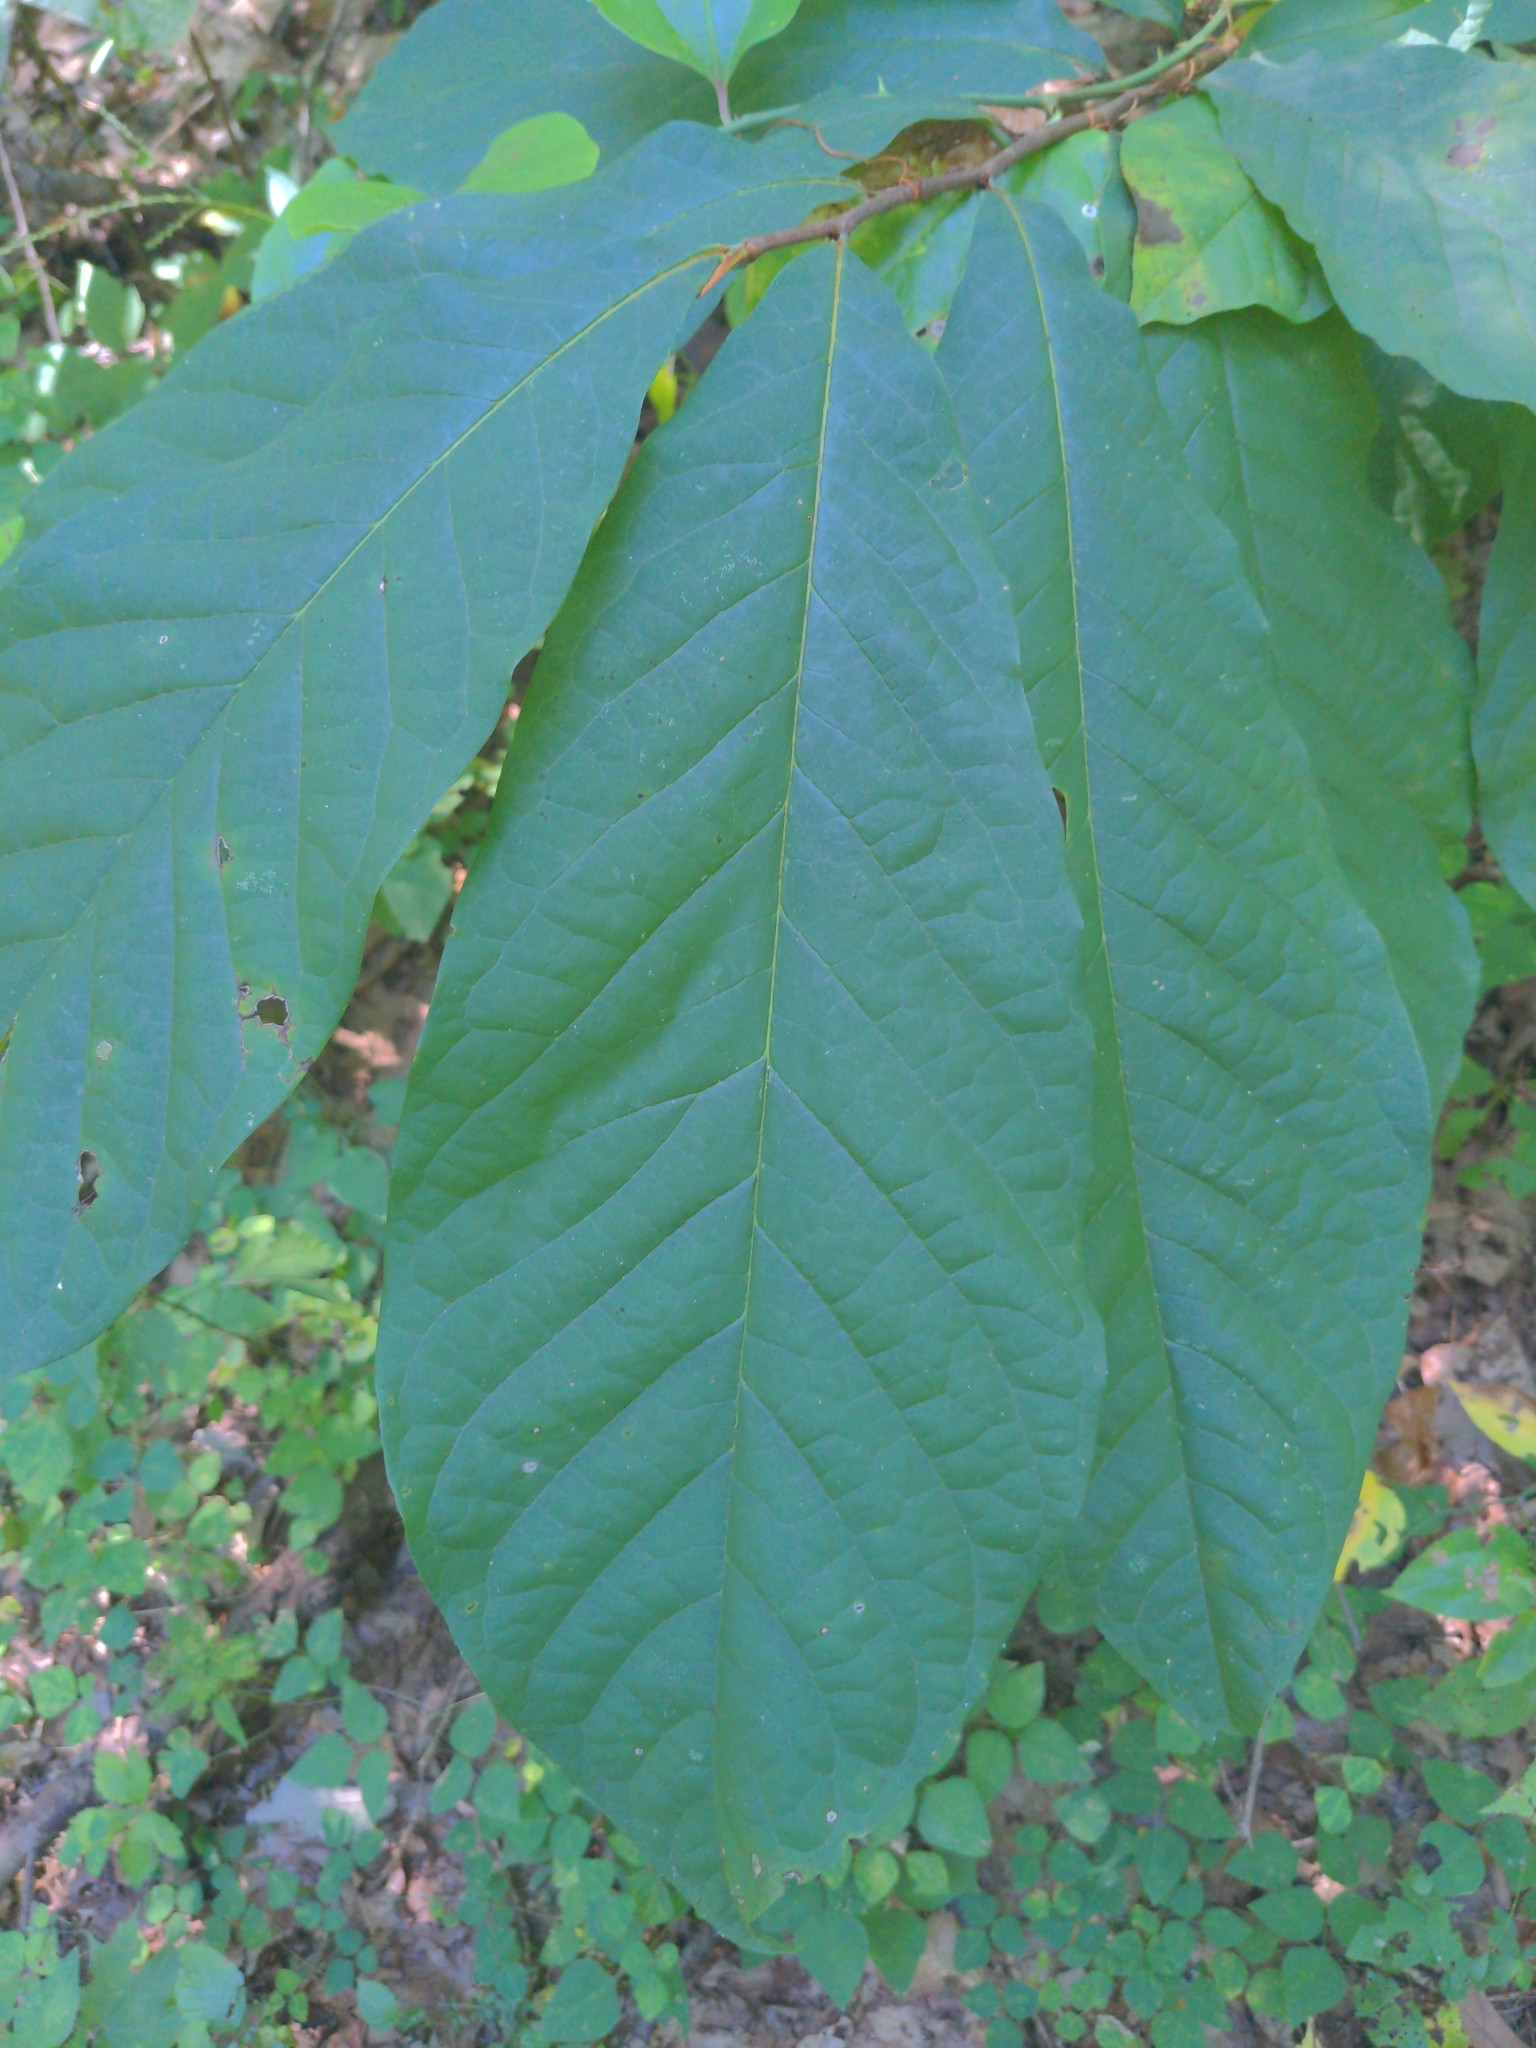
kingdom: Plantae
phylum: Tracheophyta
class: Magnoliopsida
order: Magnoliales
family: Annonaceae
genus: Asimina
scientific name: Asimina triloba
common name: Dog-banana
